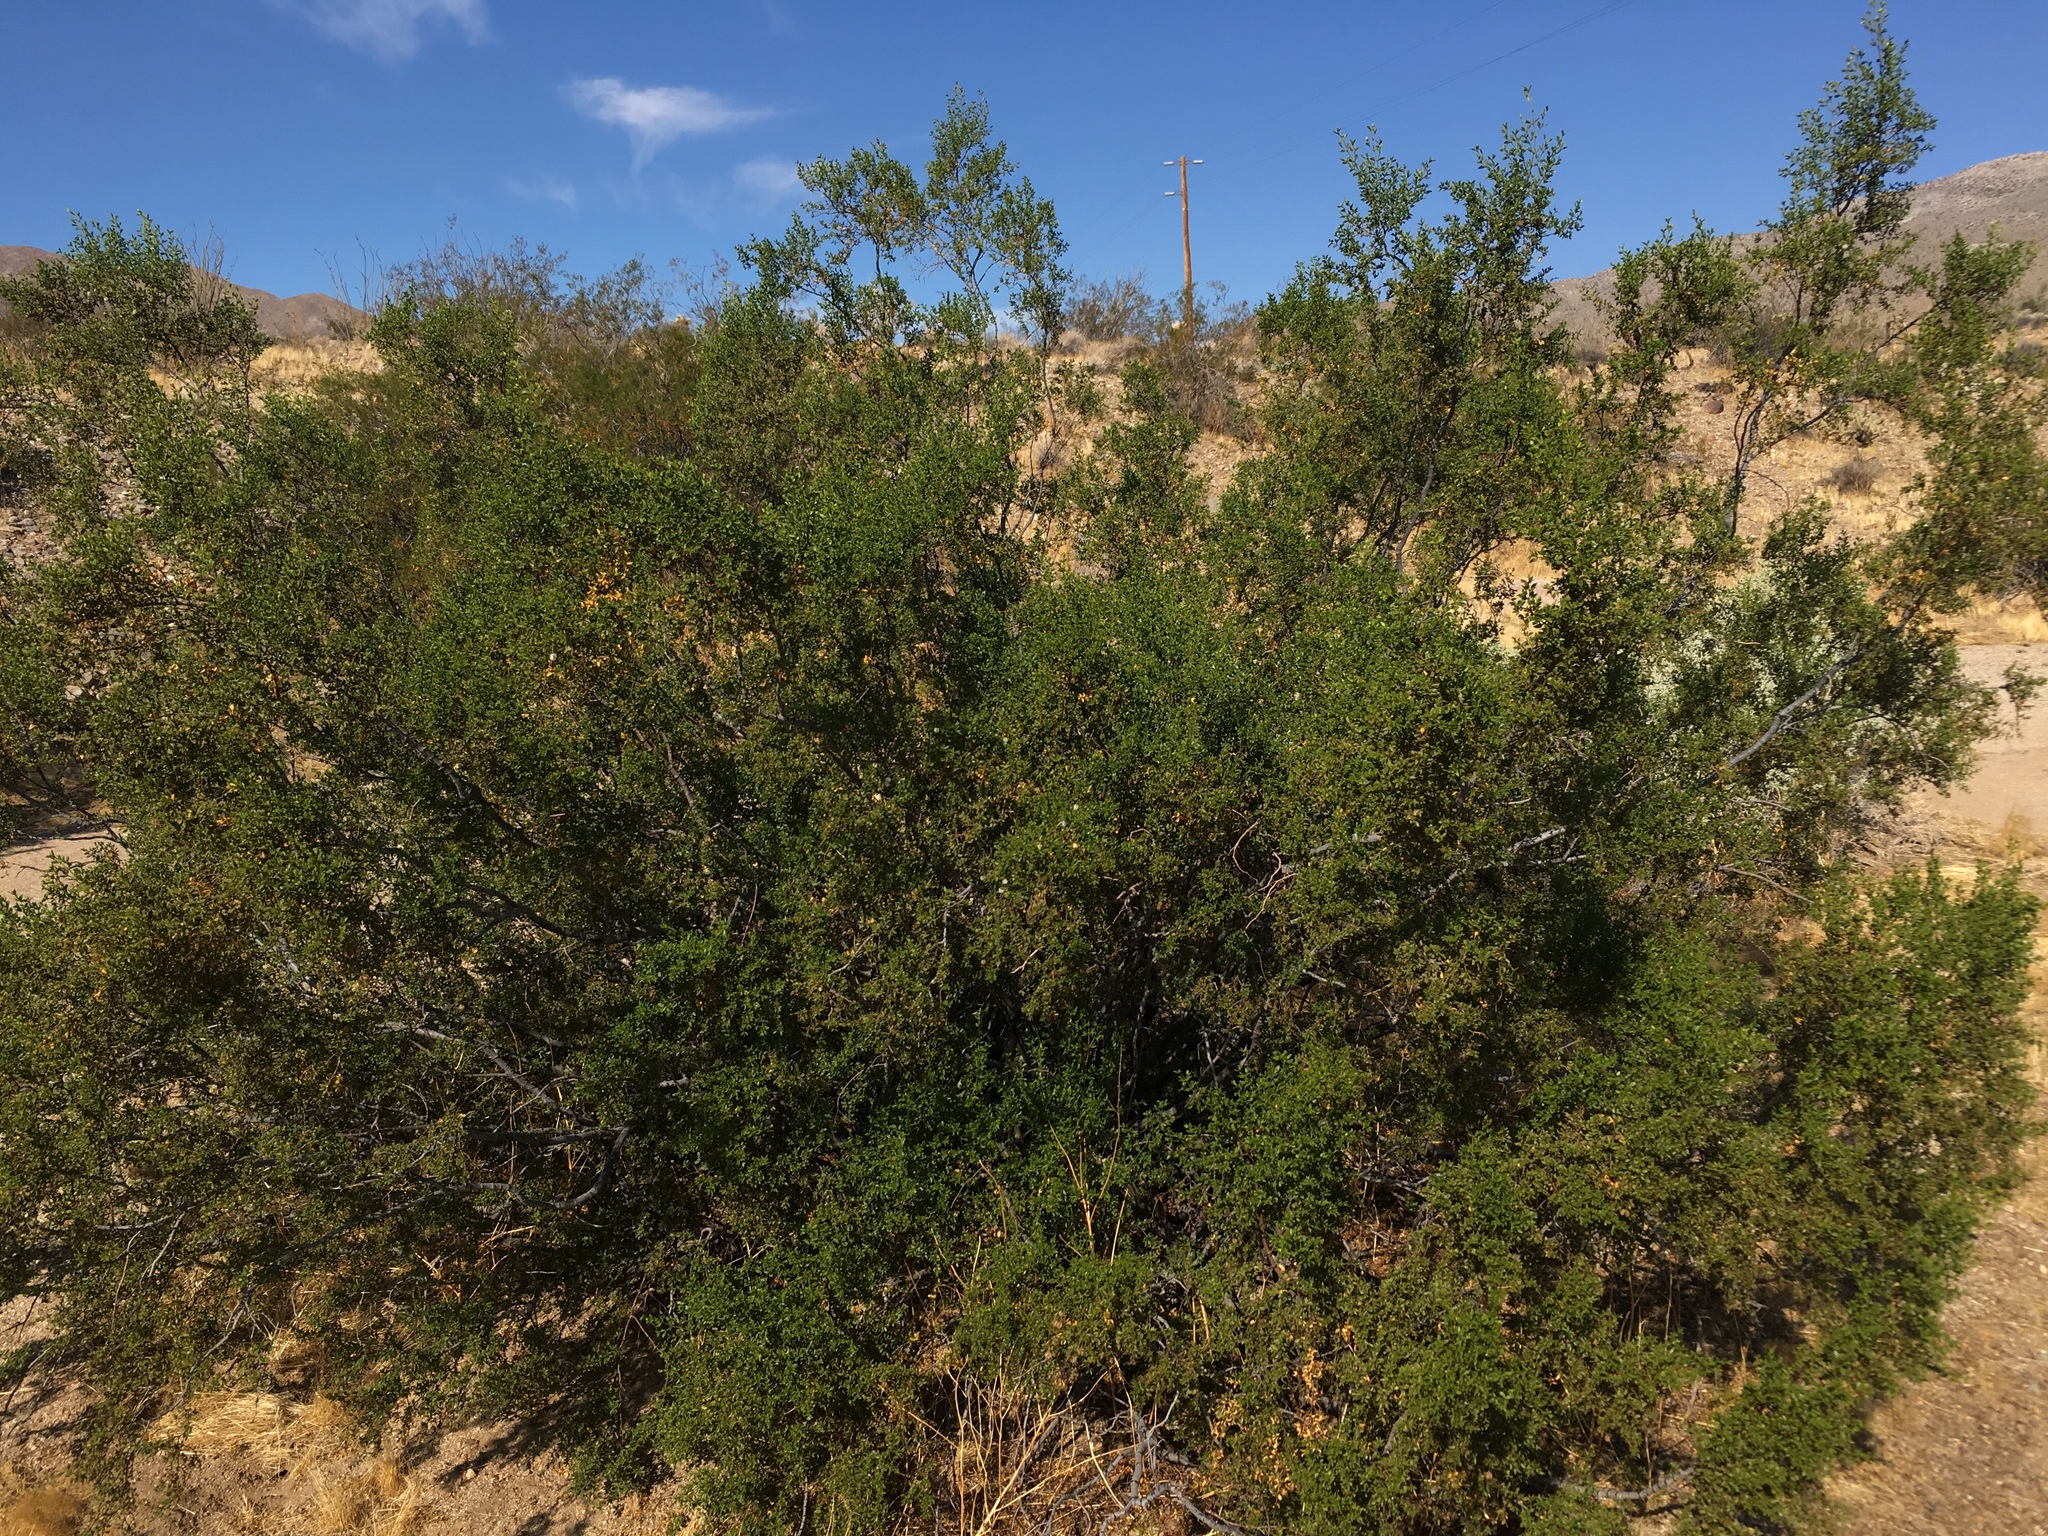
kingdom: Plantae
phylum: Tracheophyta
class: Magnoliopsida
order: Zygophyllales
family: Zygophyllaceae
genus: Larrea
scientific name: Larrea tridentata
